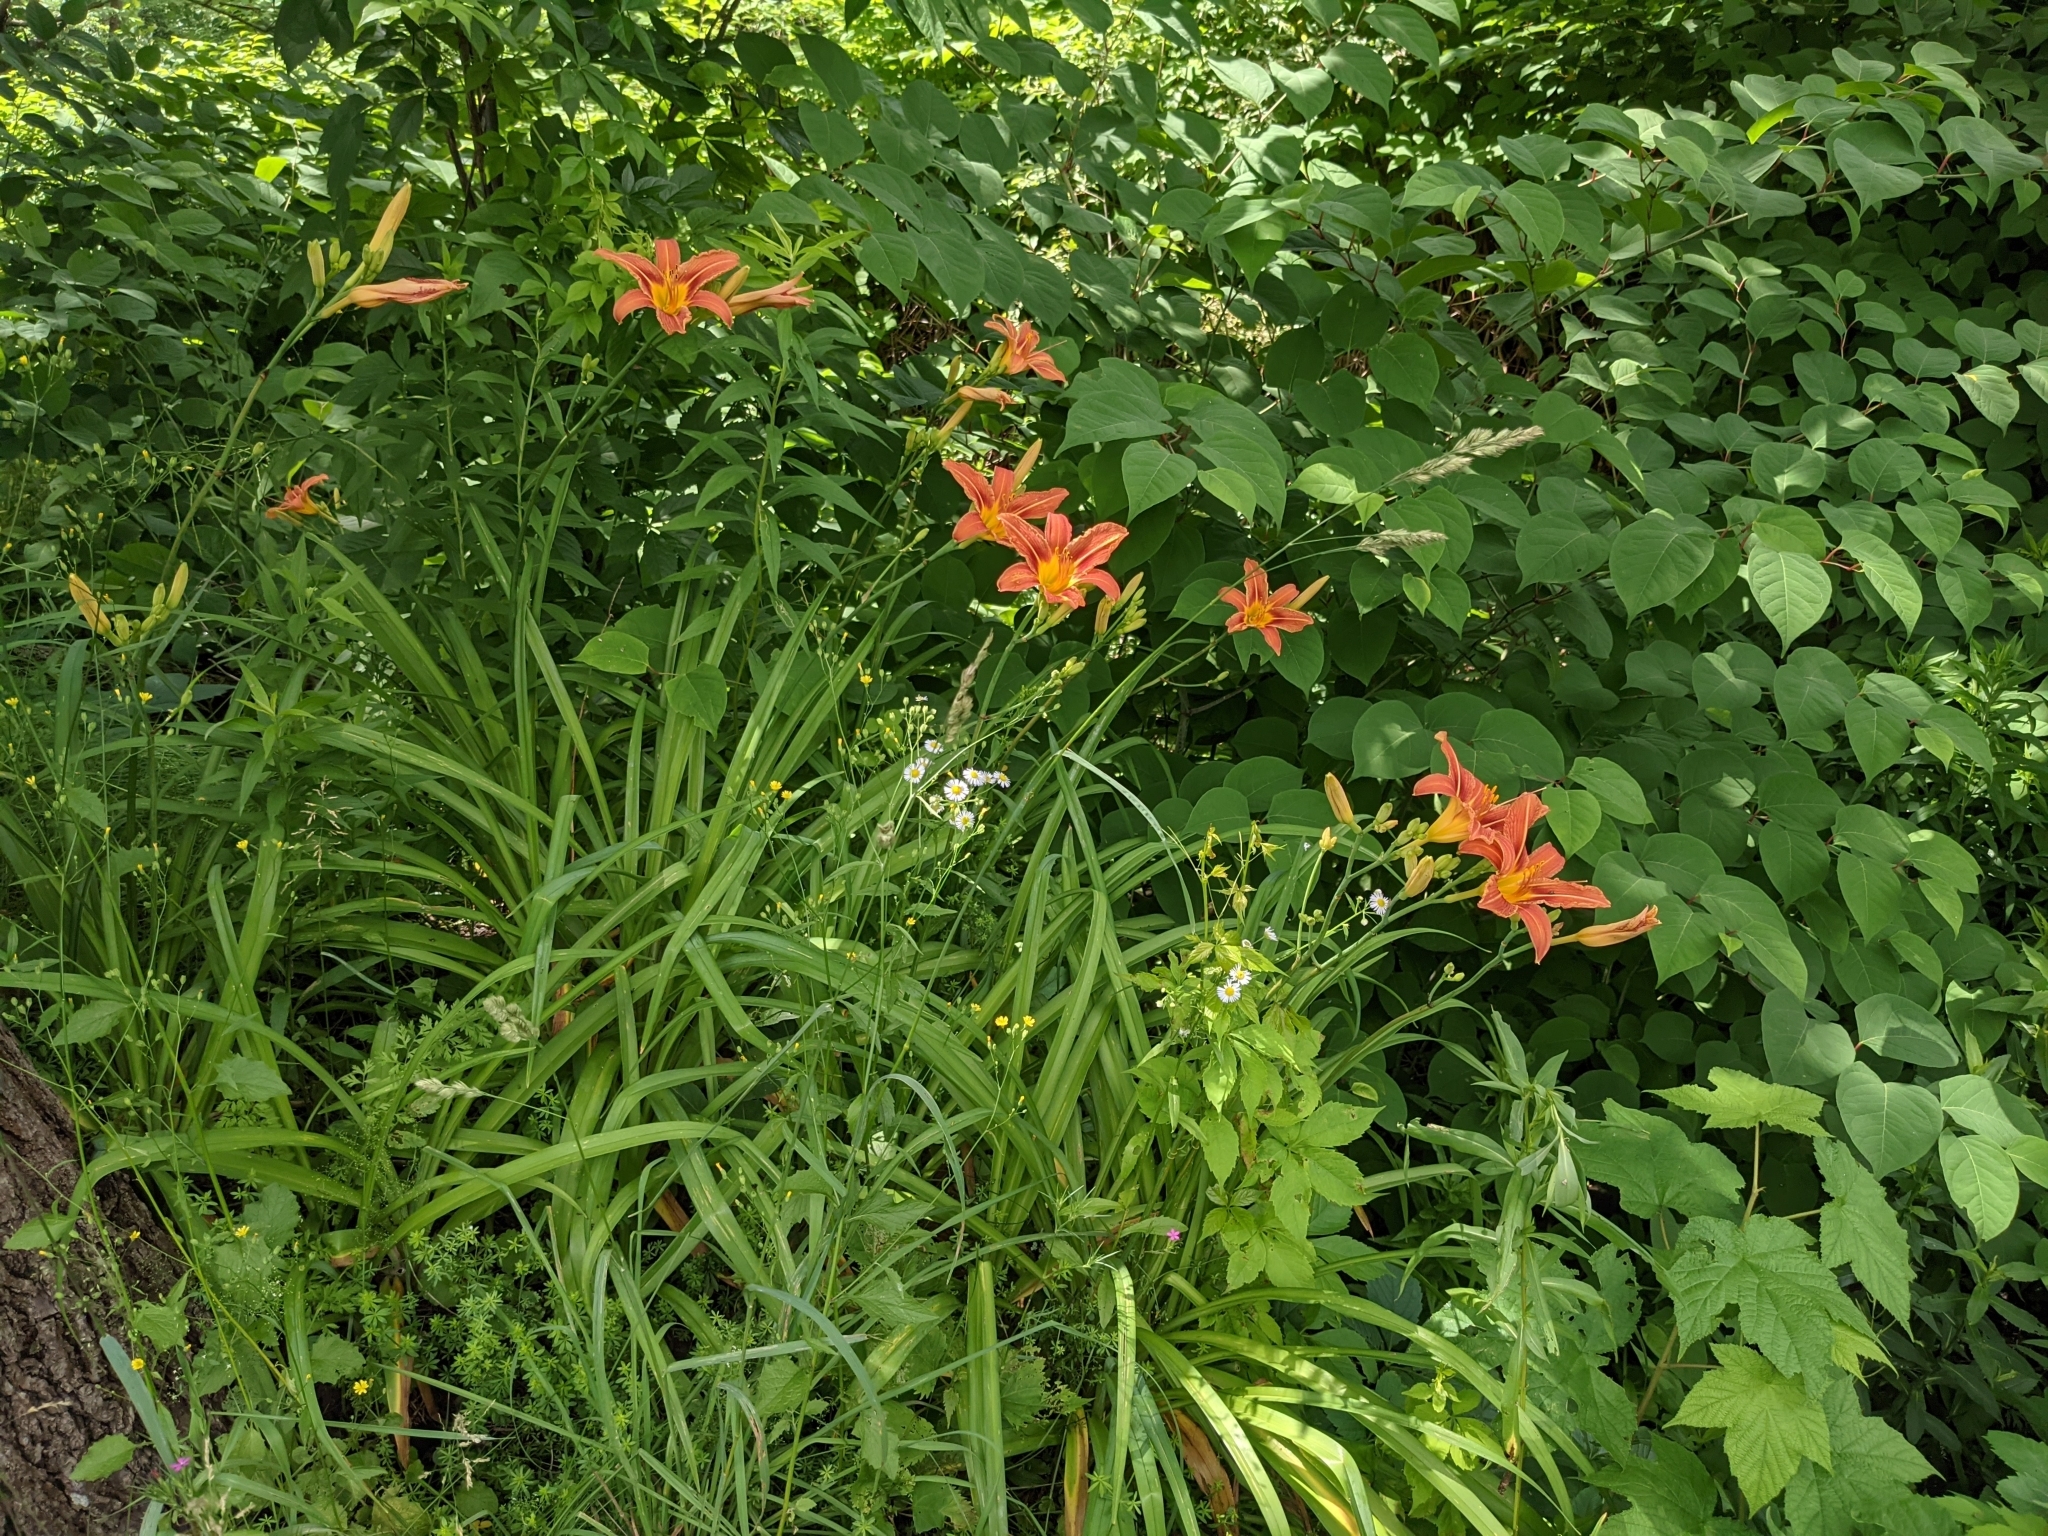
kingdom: Plantae
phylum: Tracheophyta
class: Liliopsida
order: Asparagales
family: Asphodelaceae
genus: Hemerocallis
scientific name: Hemerocallis fulva
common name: Orange day-lily
